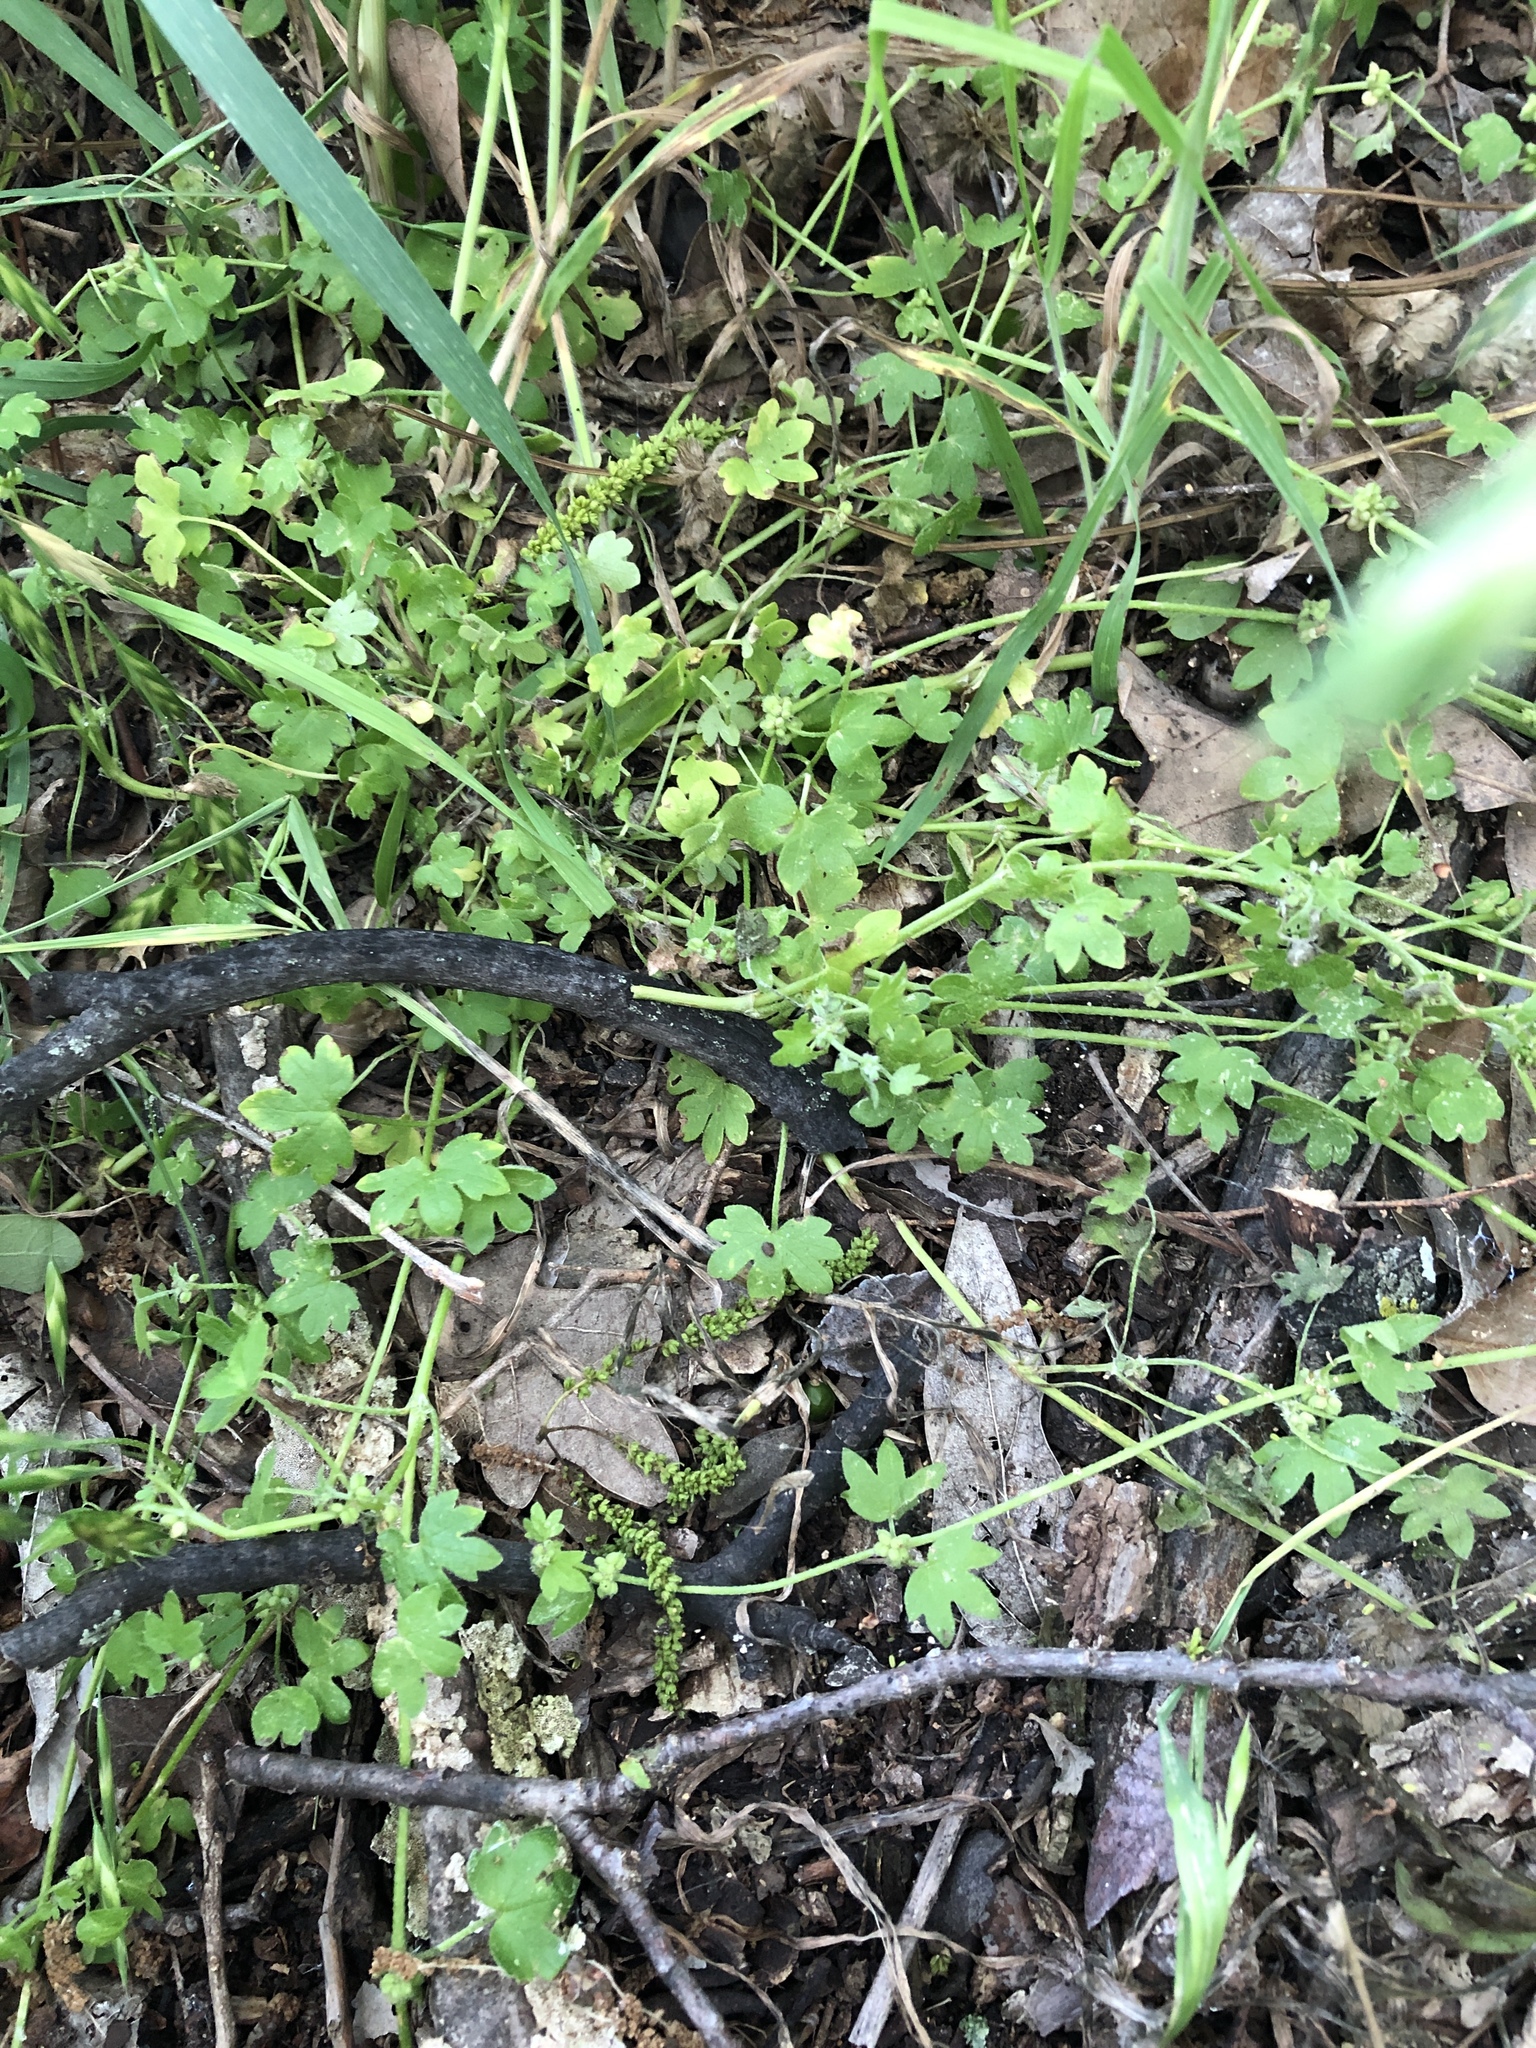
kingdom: Plantae
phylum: Tracheophyta
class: Magnoliopsida
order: Apiales
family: Apiaceae
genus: Bowlesia
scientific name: Bowlesia incana
